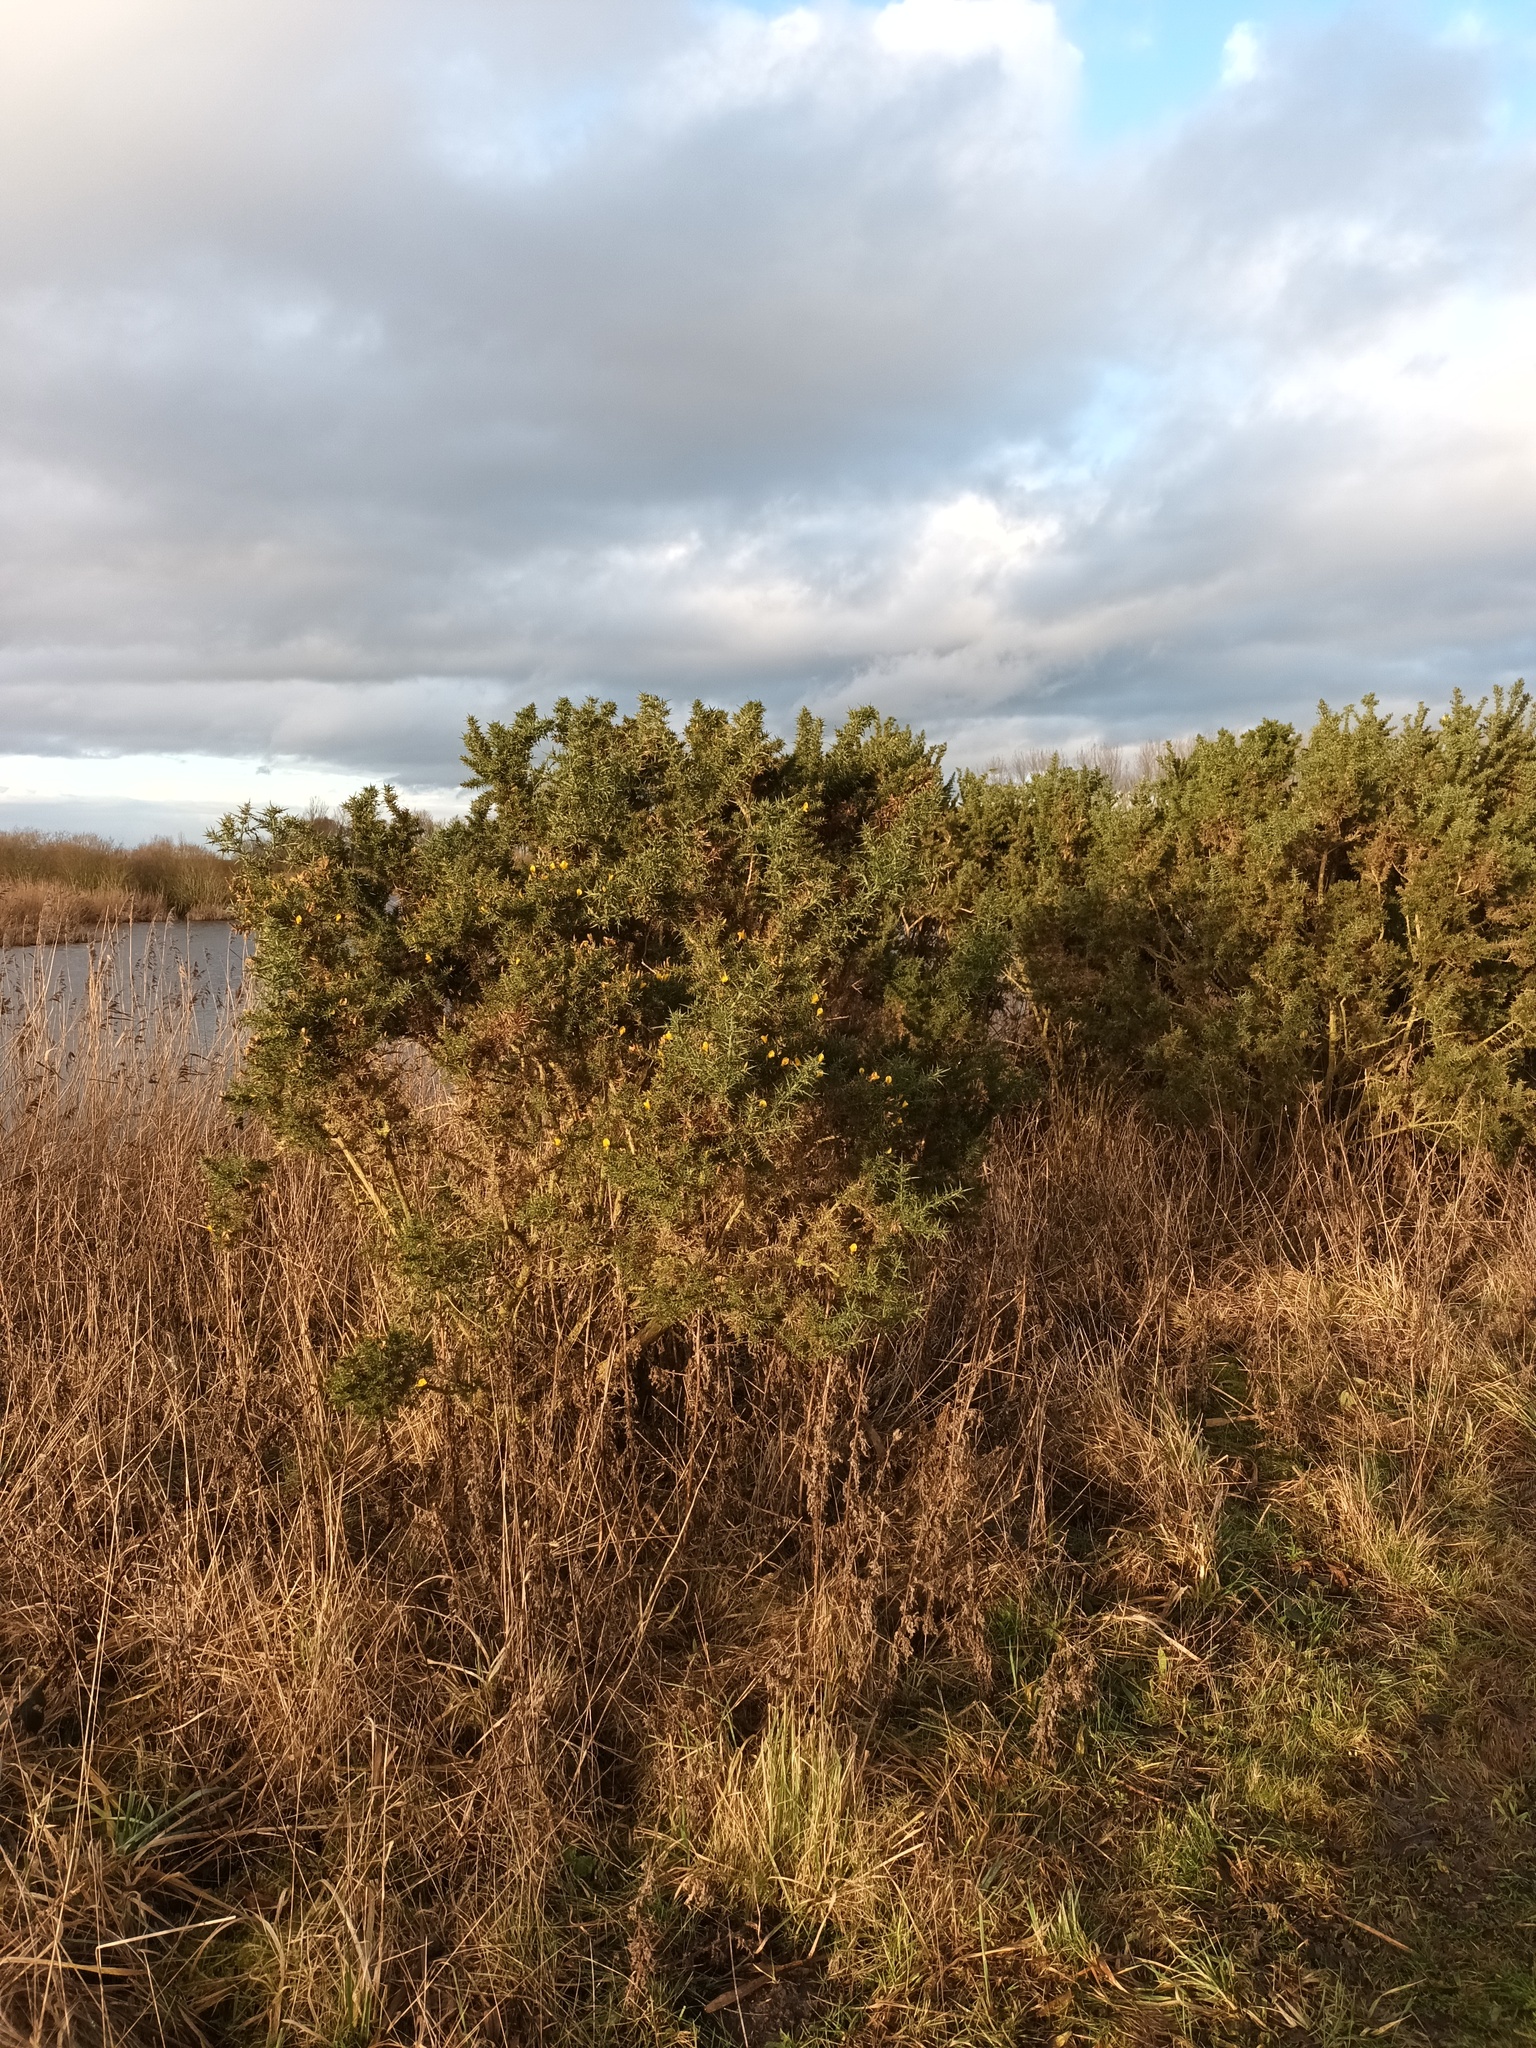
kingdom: Plantae
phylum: Tracheophyta
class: Magnoliopsida
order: Fabales
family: Fabaceae
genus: Ulex
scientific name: Ulex europaeus
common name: Common gorse
